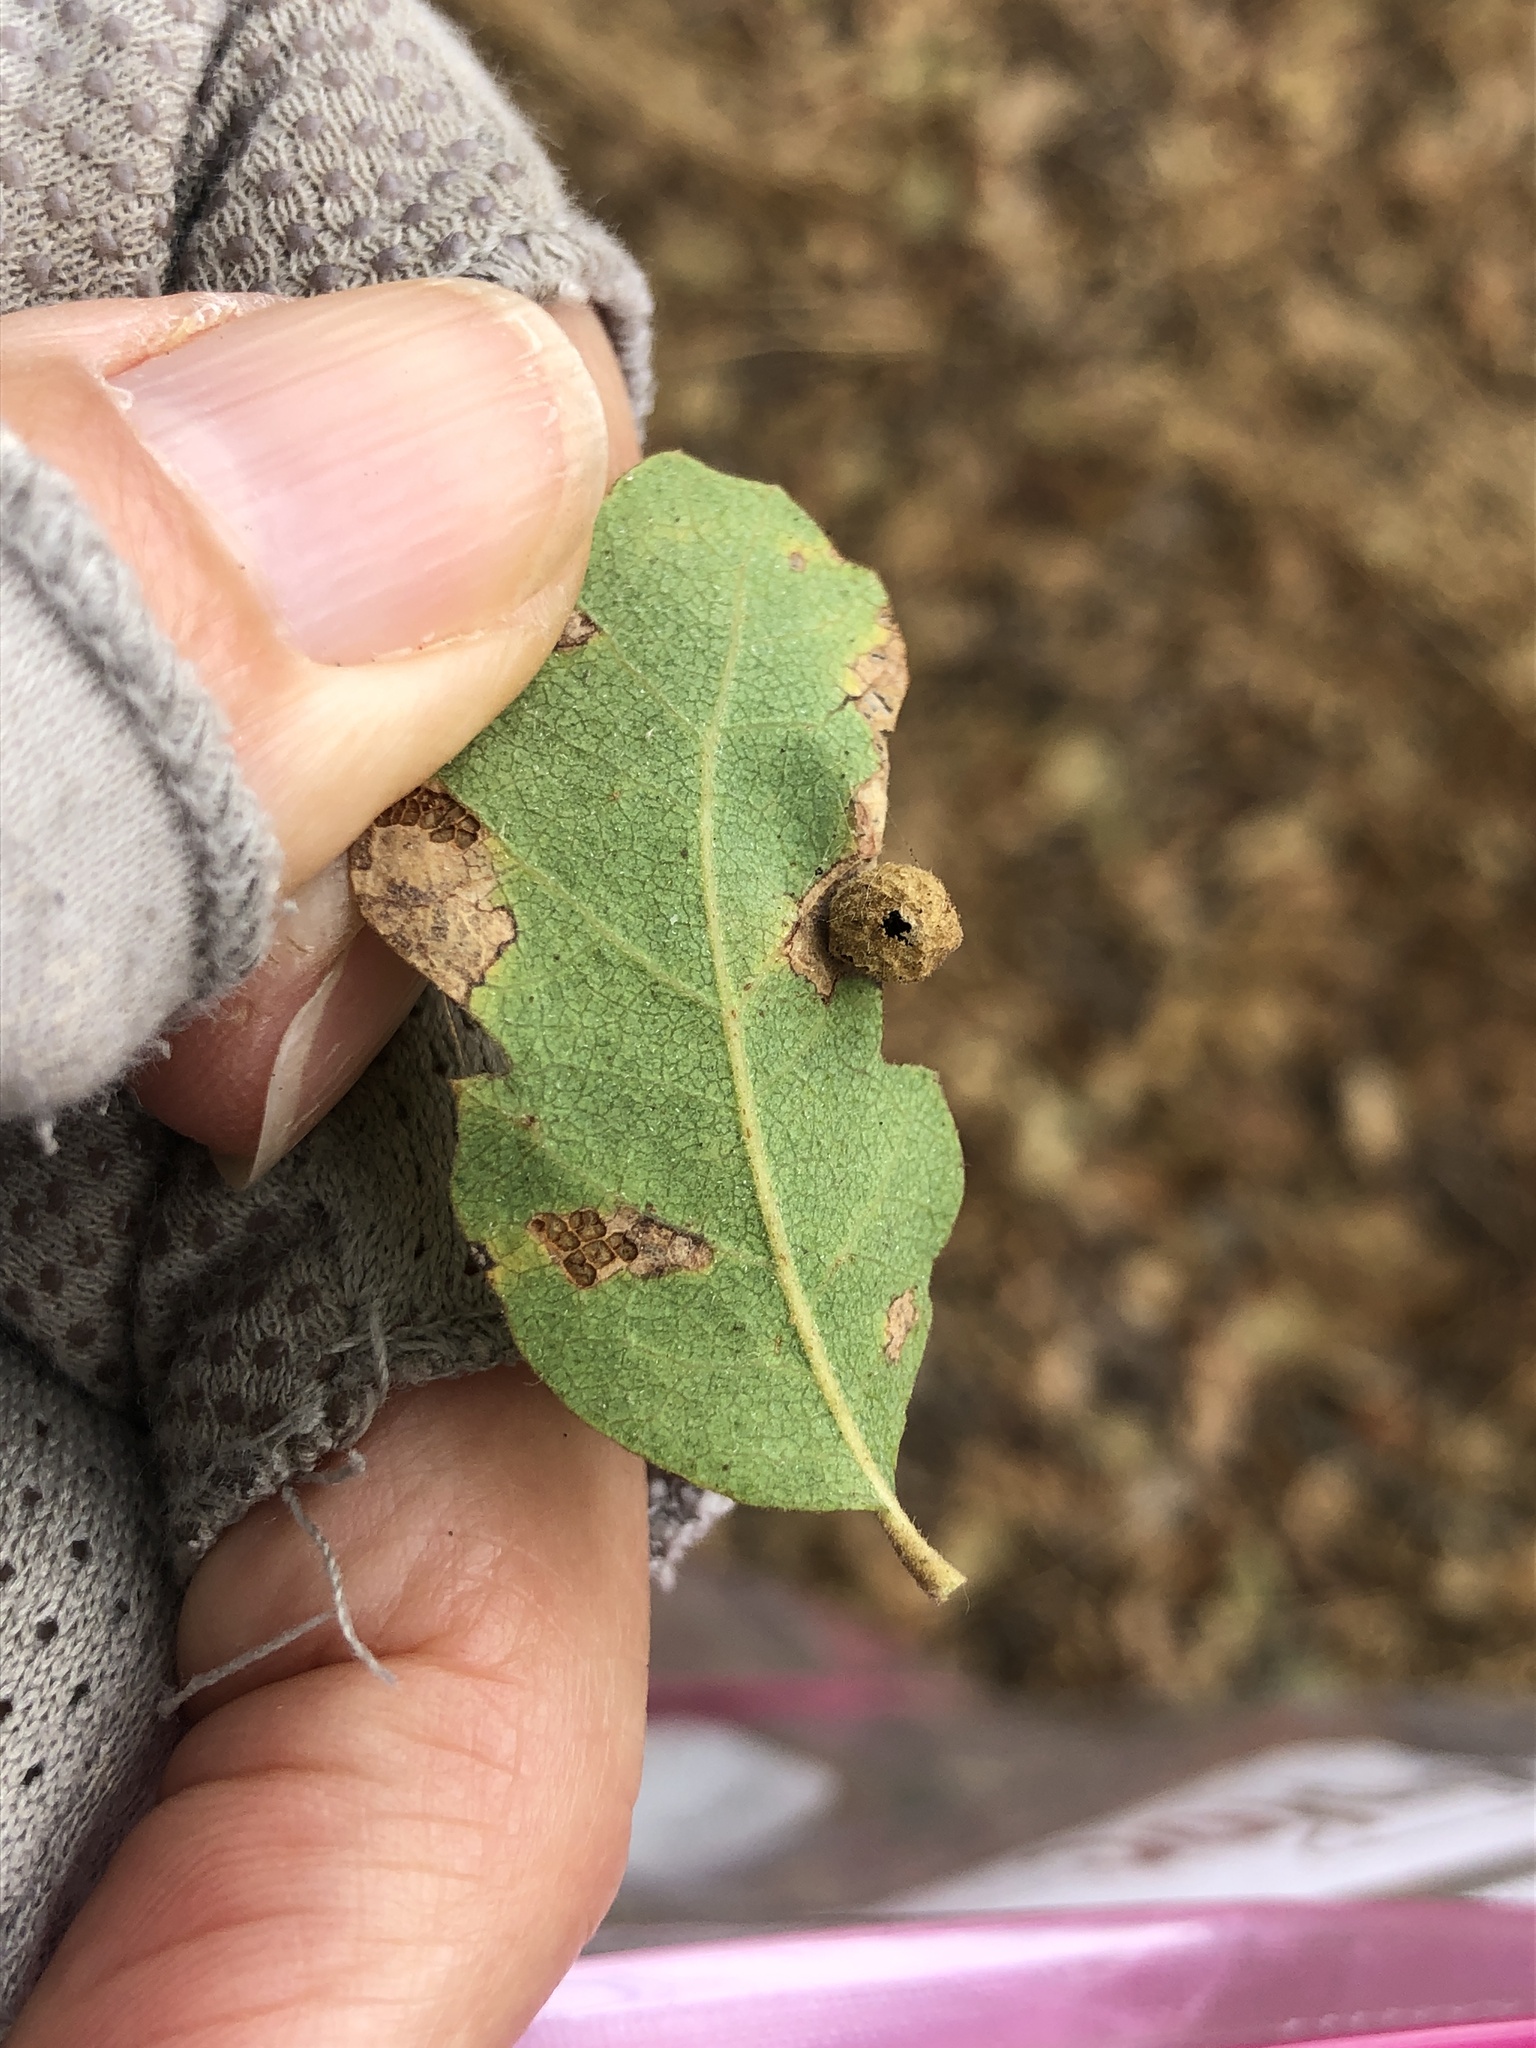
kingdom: Animalia
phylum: Arthropoda
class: Insecta
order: Hymenoptera
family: Cynipidae
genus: Andricus
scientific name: Andricus
